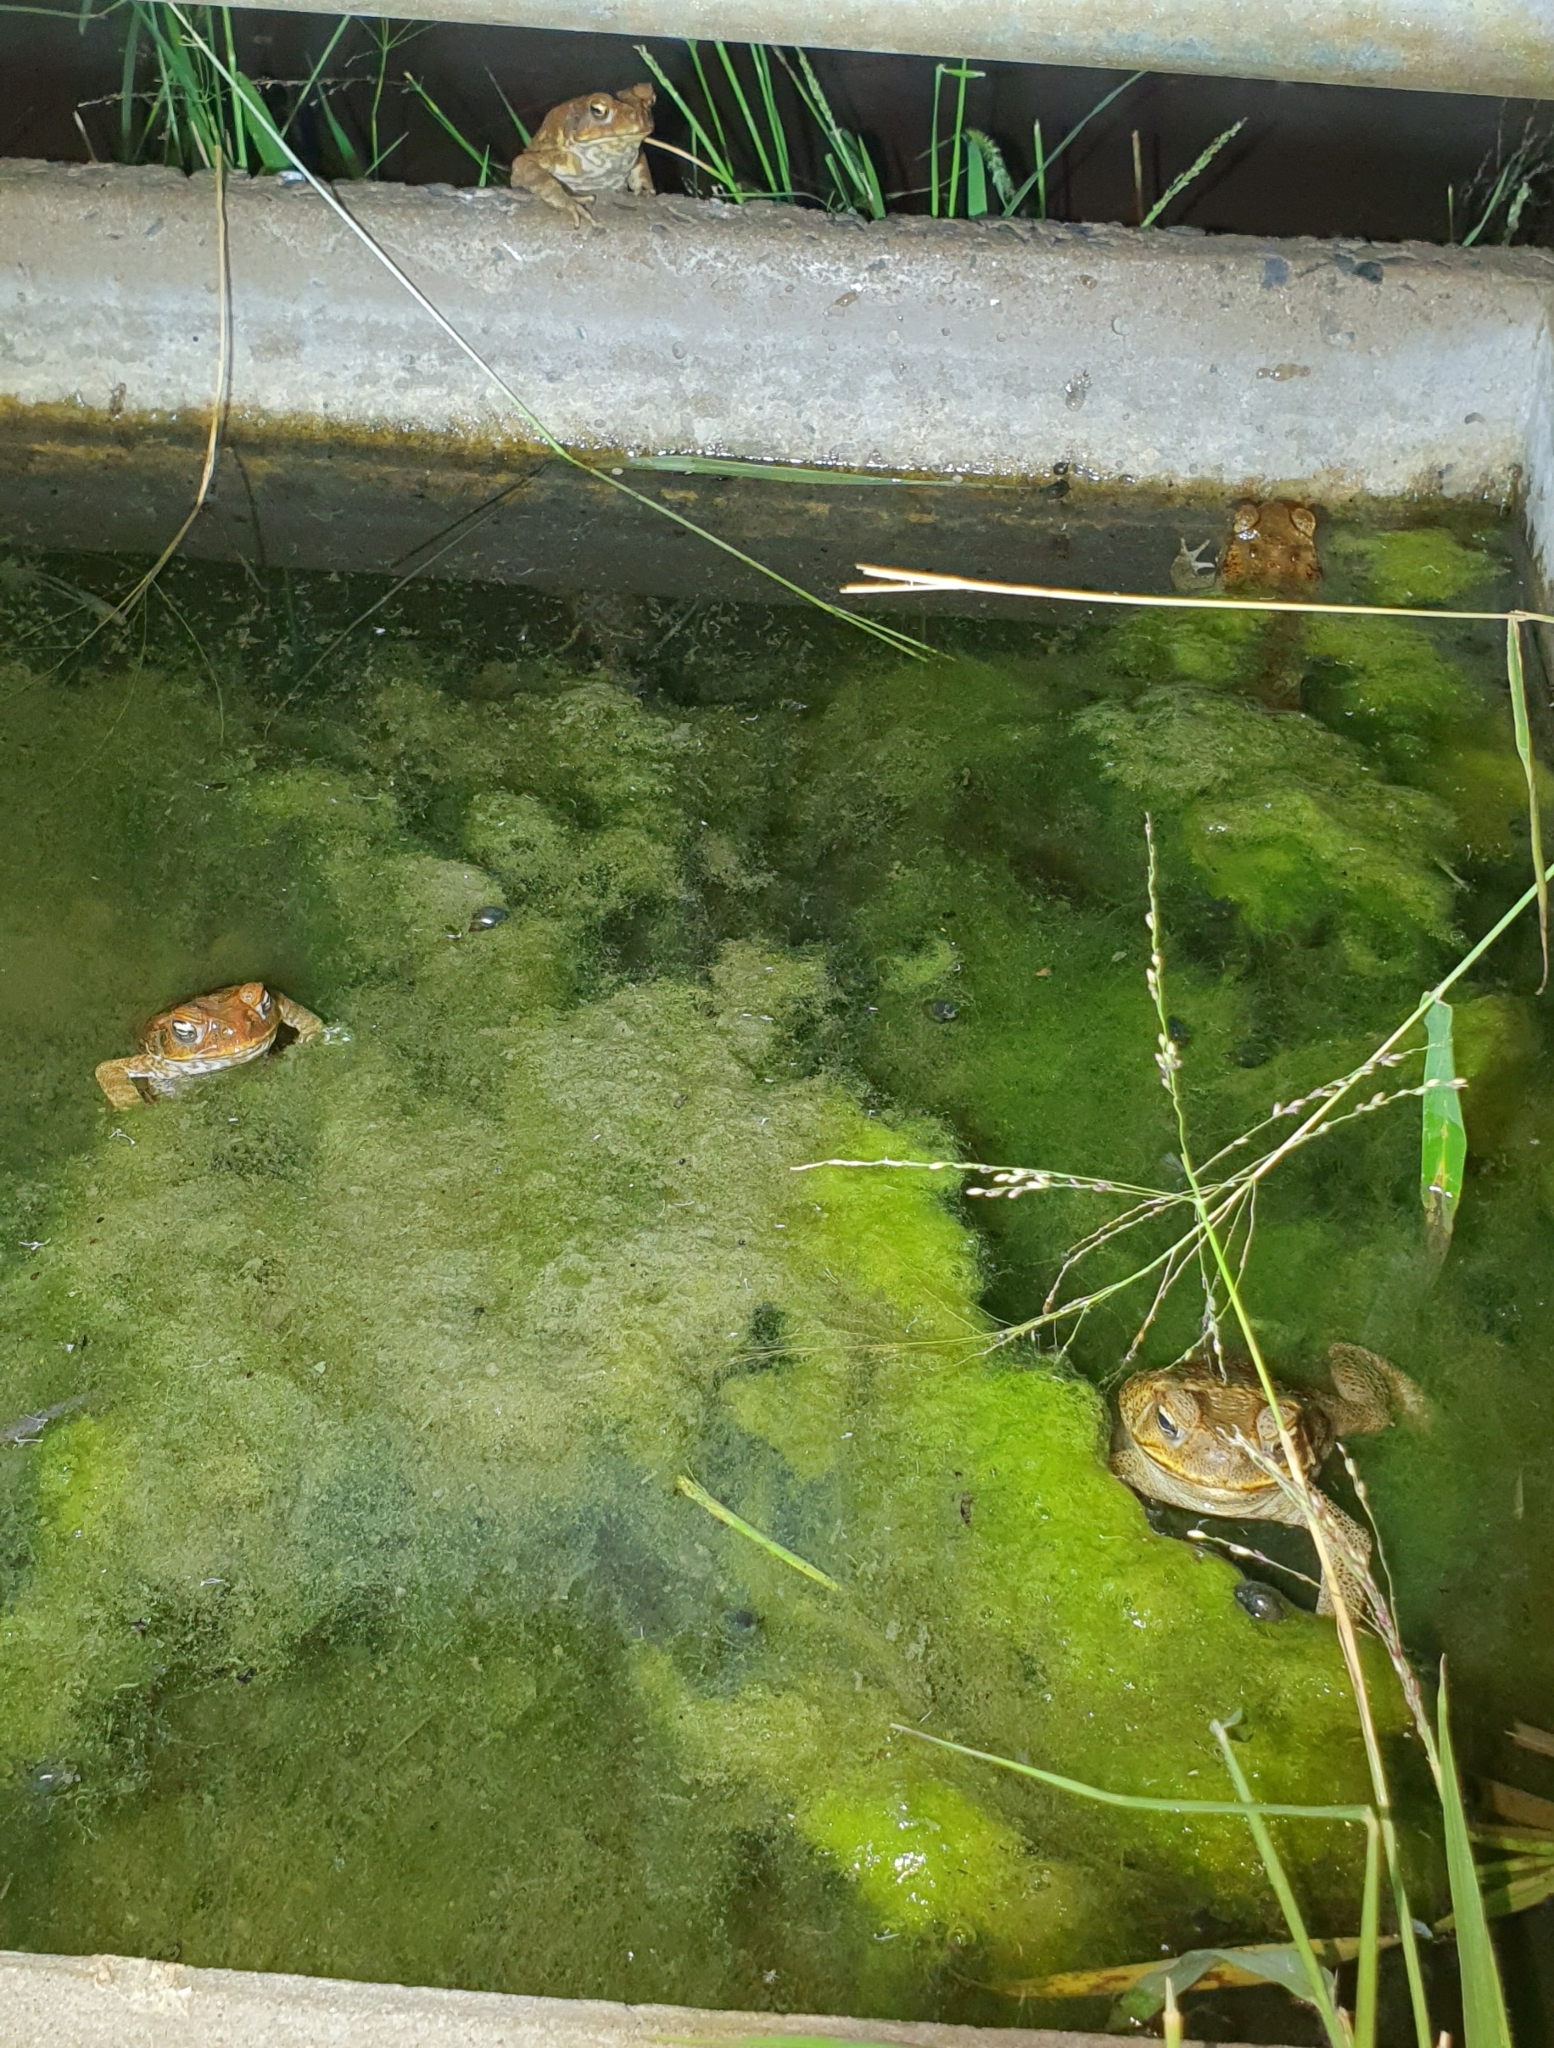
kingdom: Animalia
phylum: Chordata
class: Amphibia
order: Anura
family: Bufonidae
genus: Rhinella
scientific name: Rhinella marina
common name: Cane toad
